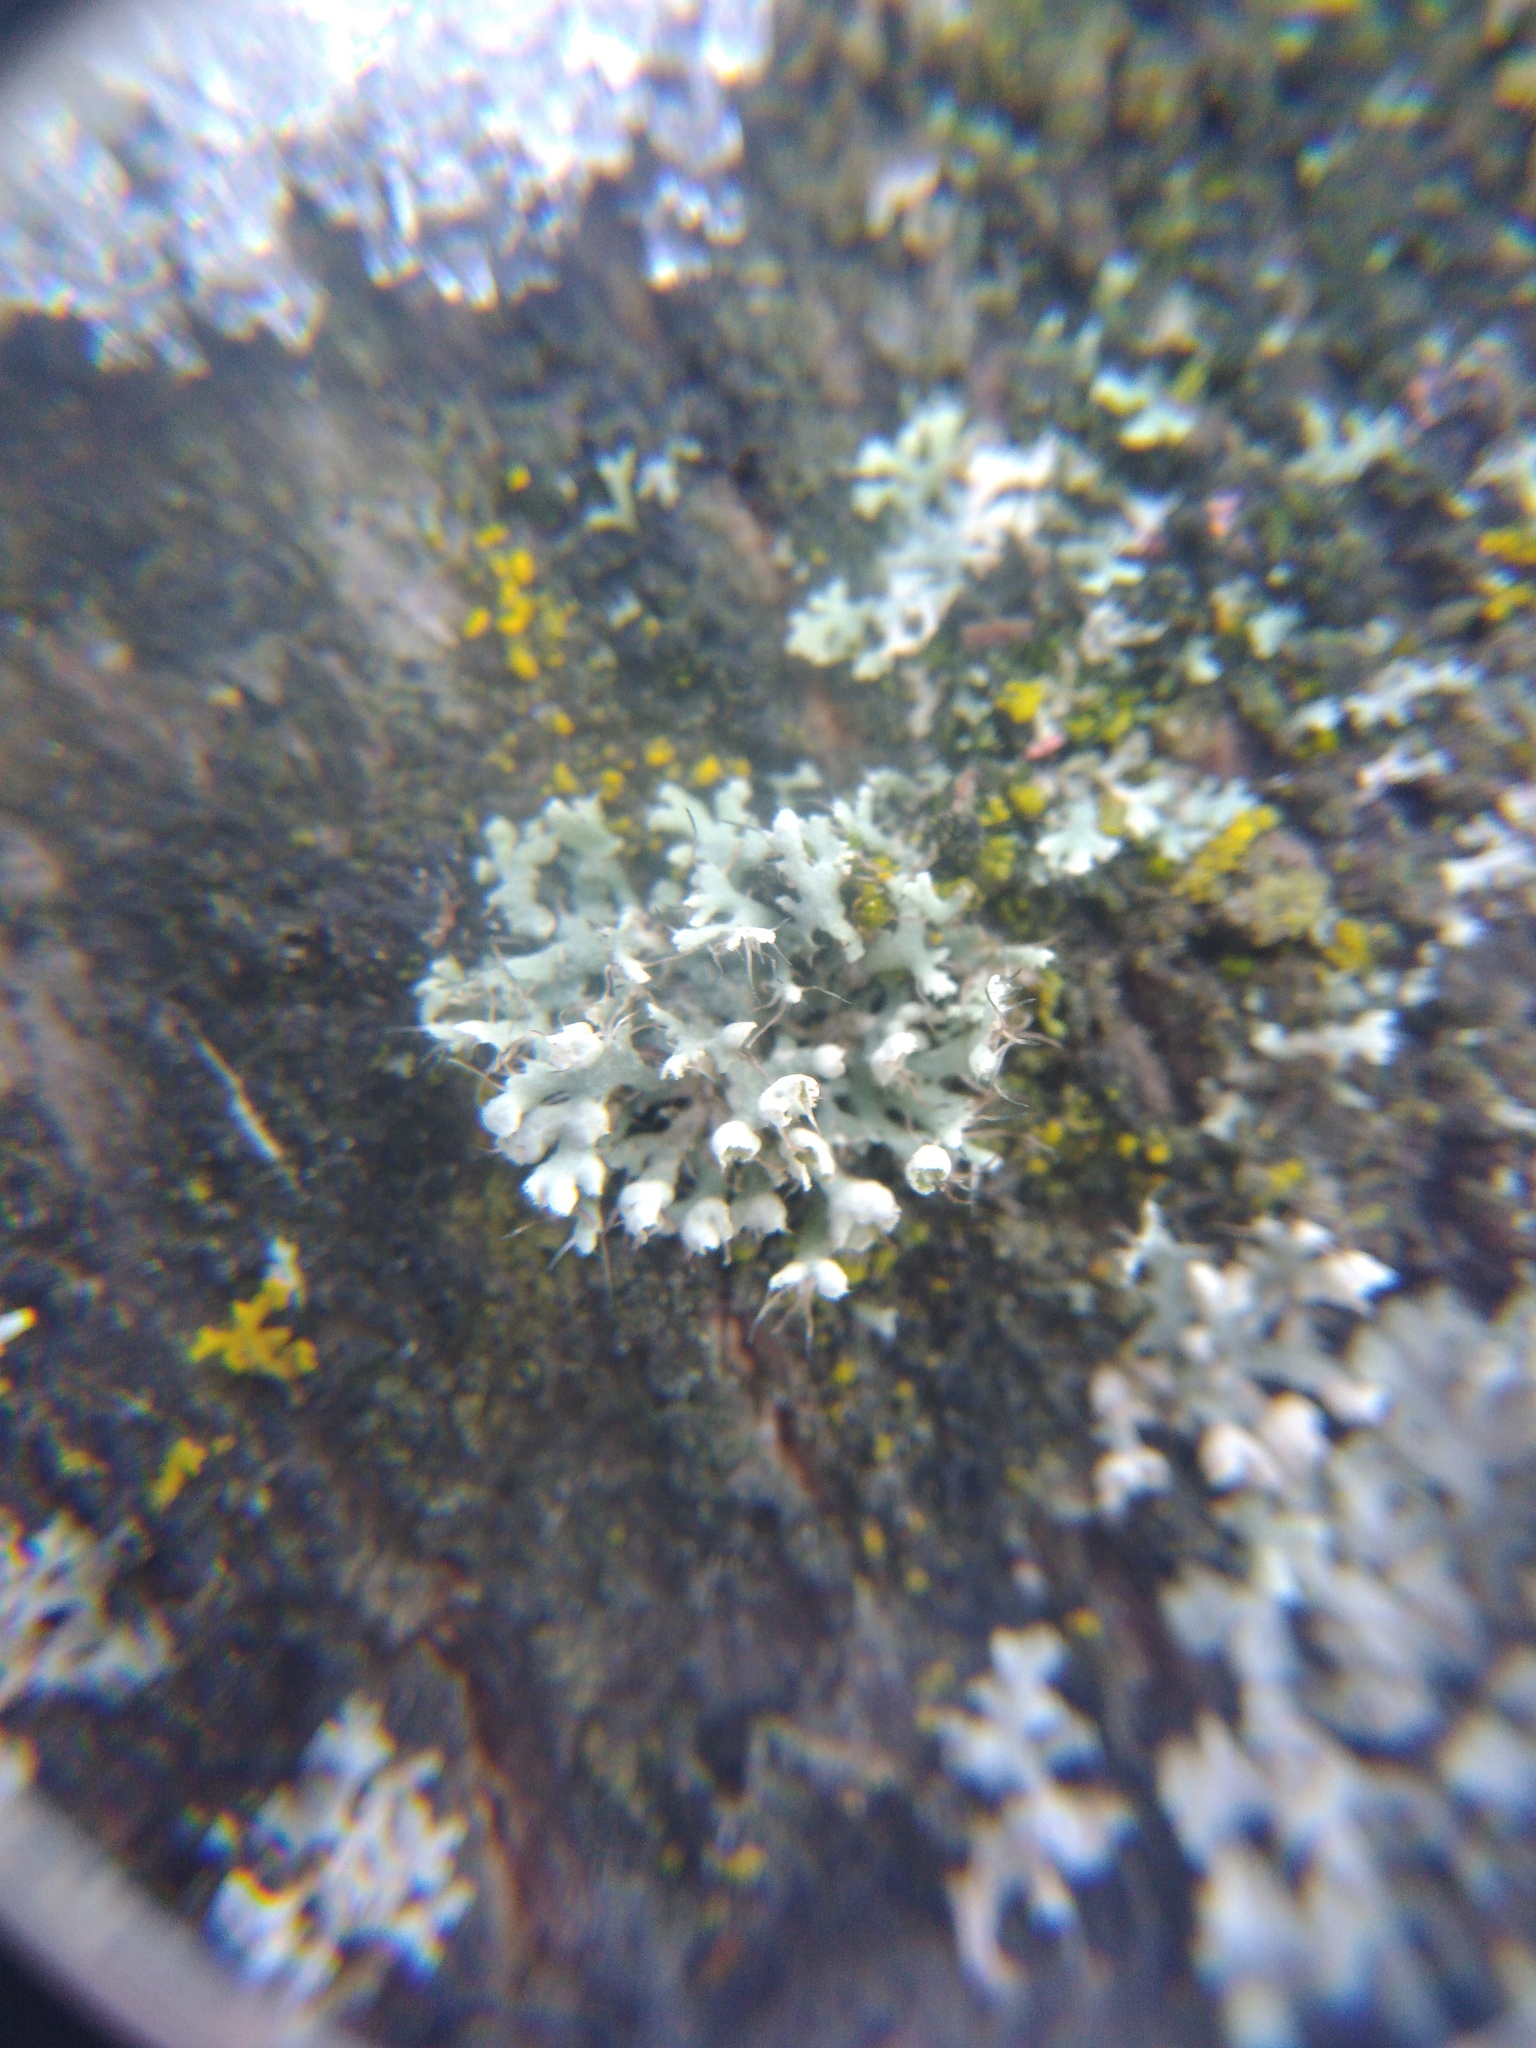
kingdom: Fungi
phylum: Ascomycota
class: Lecanoromycetes
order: Caliciales
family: Physciaceae
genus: Physcia
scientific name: Physcia adscendens
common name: Hooded rosette lichen
